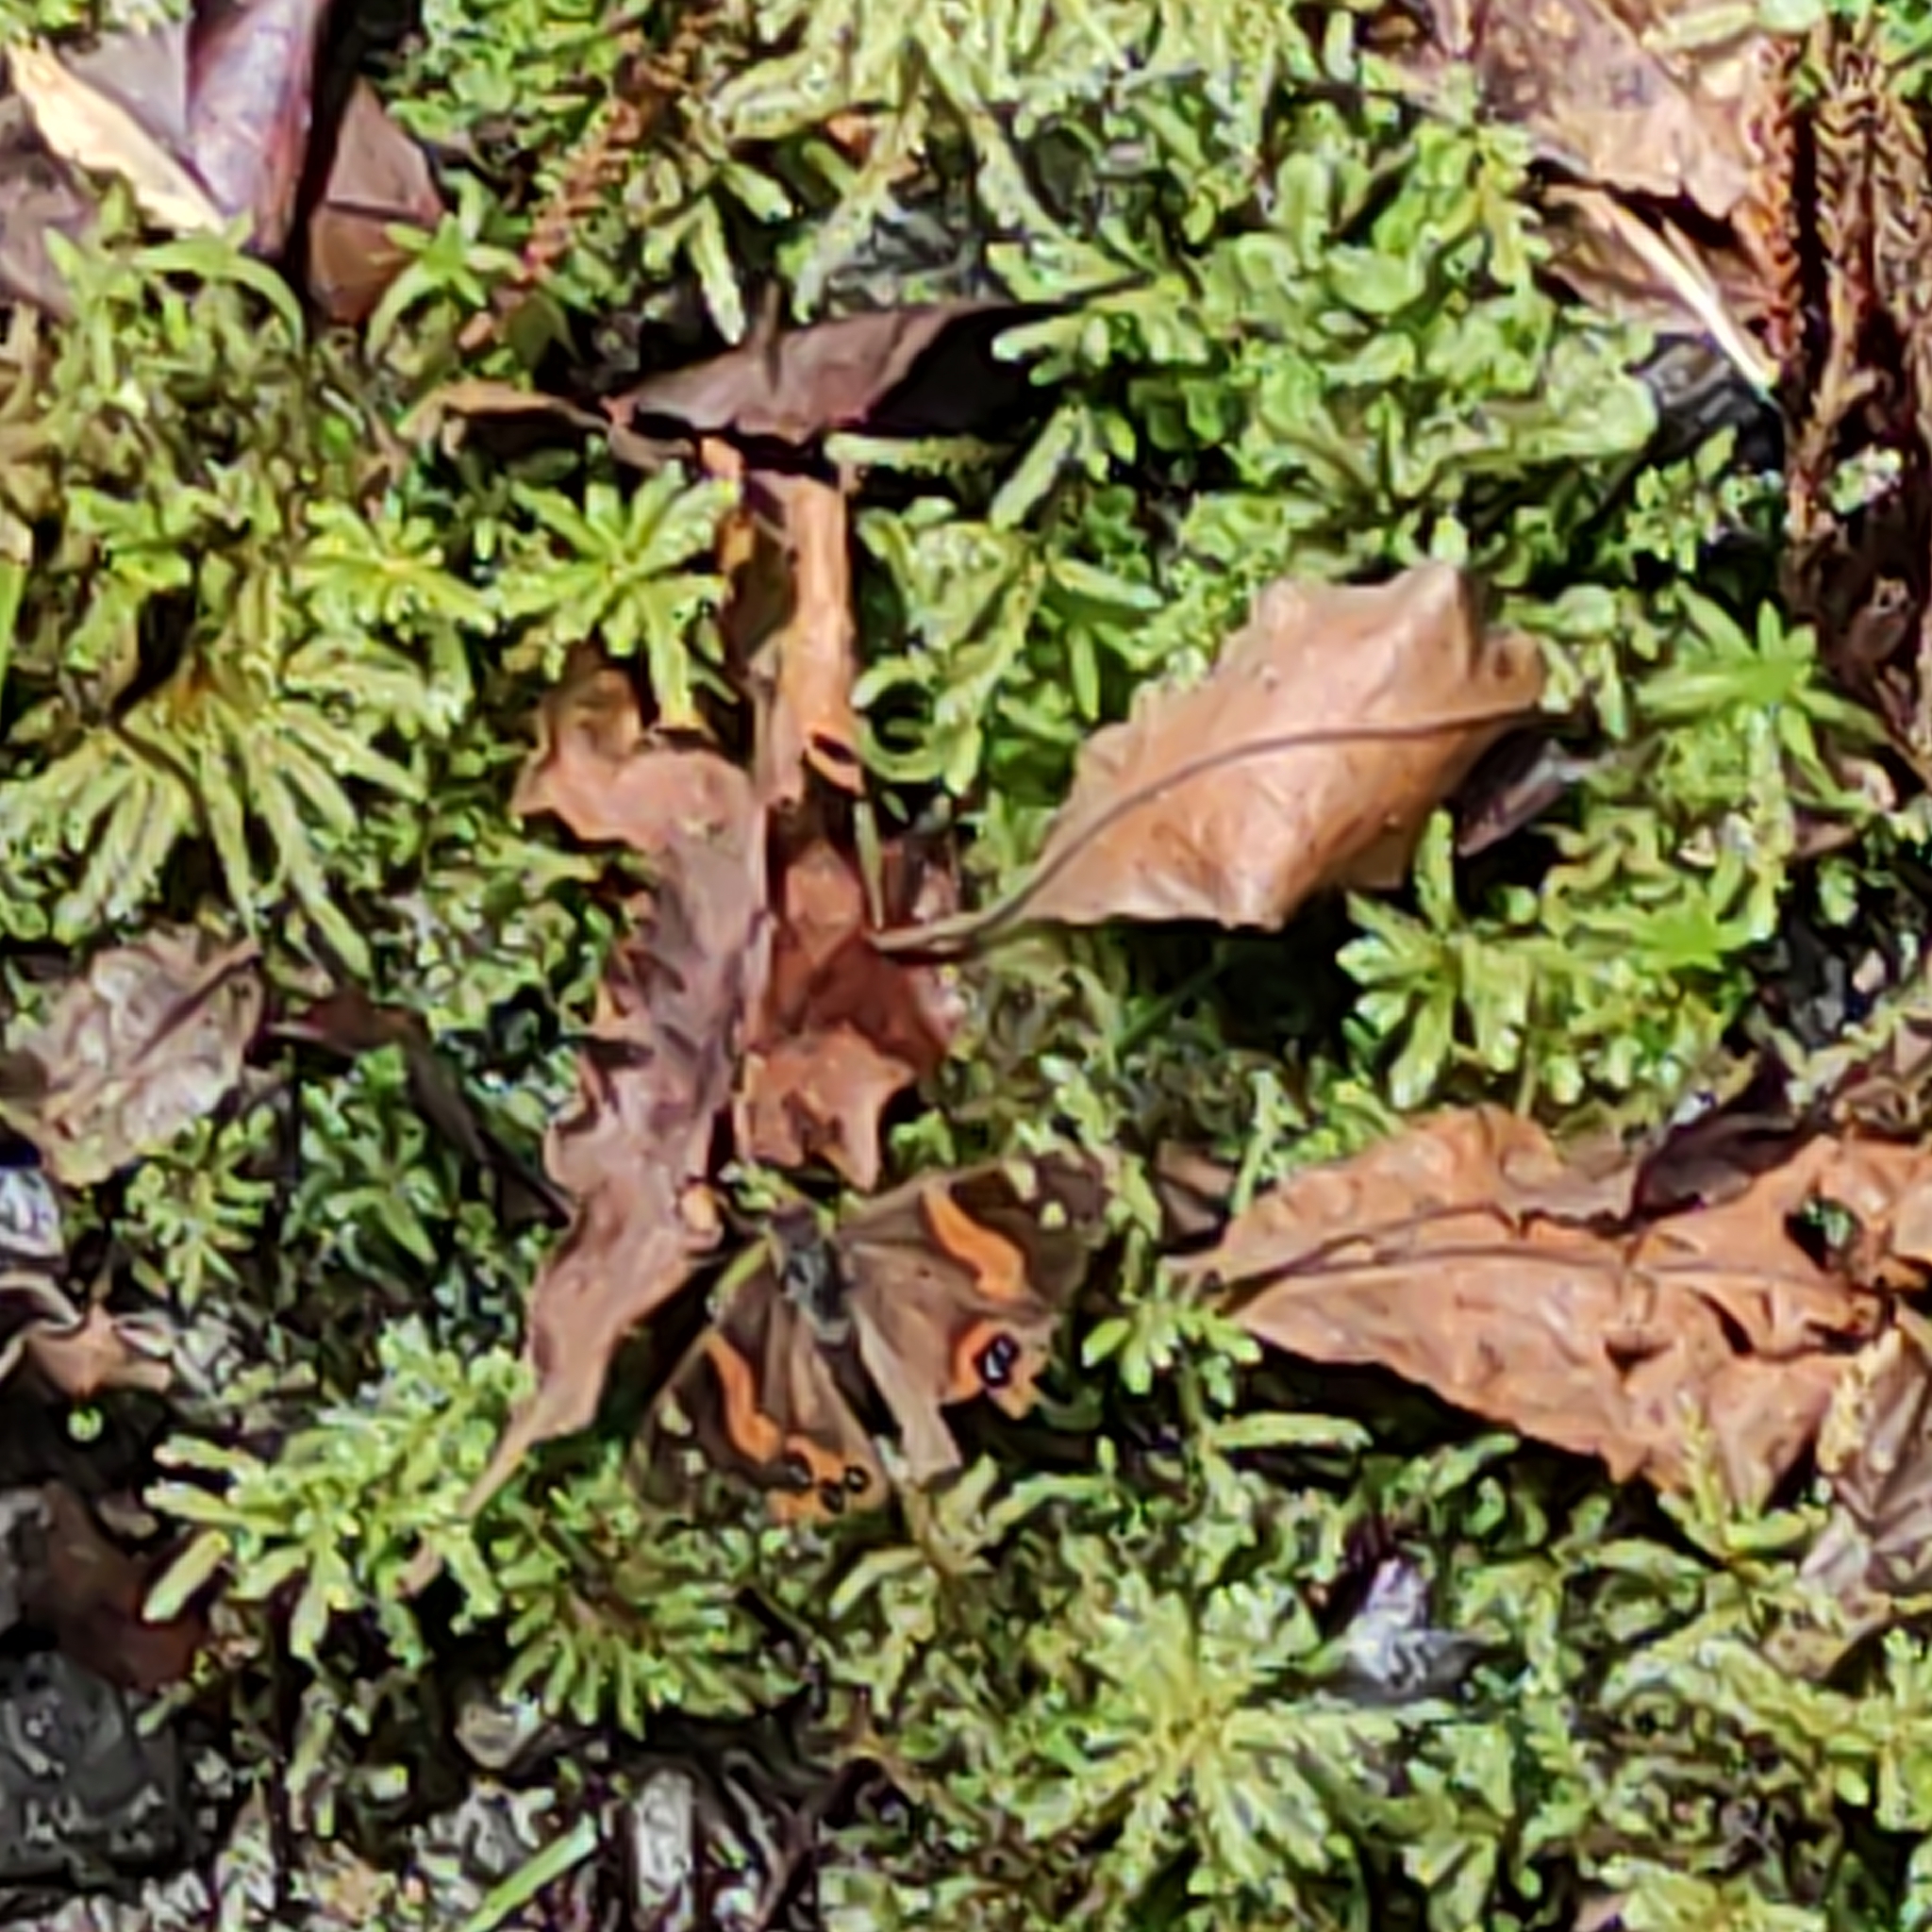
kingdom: Animalia
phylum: Arthropoda
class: Insecta
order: Lepidoptera
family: Nymphalidae
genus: Vanessa
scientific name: Vanessa gonerilla
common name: New zealand red admiral
